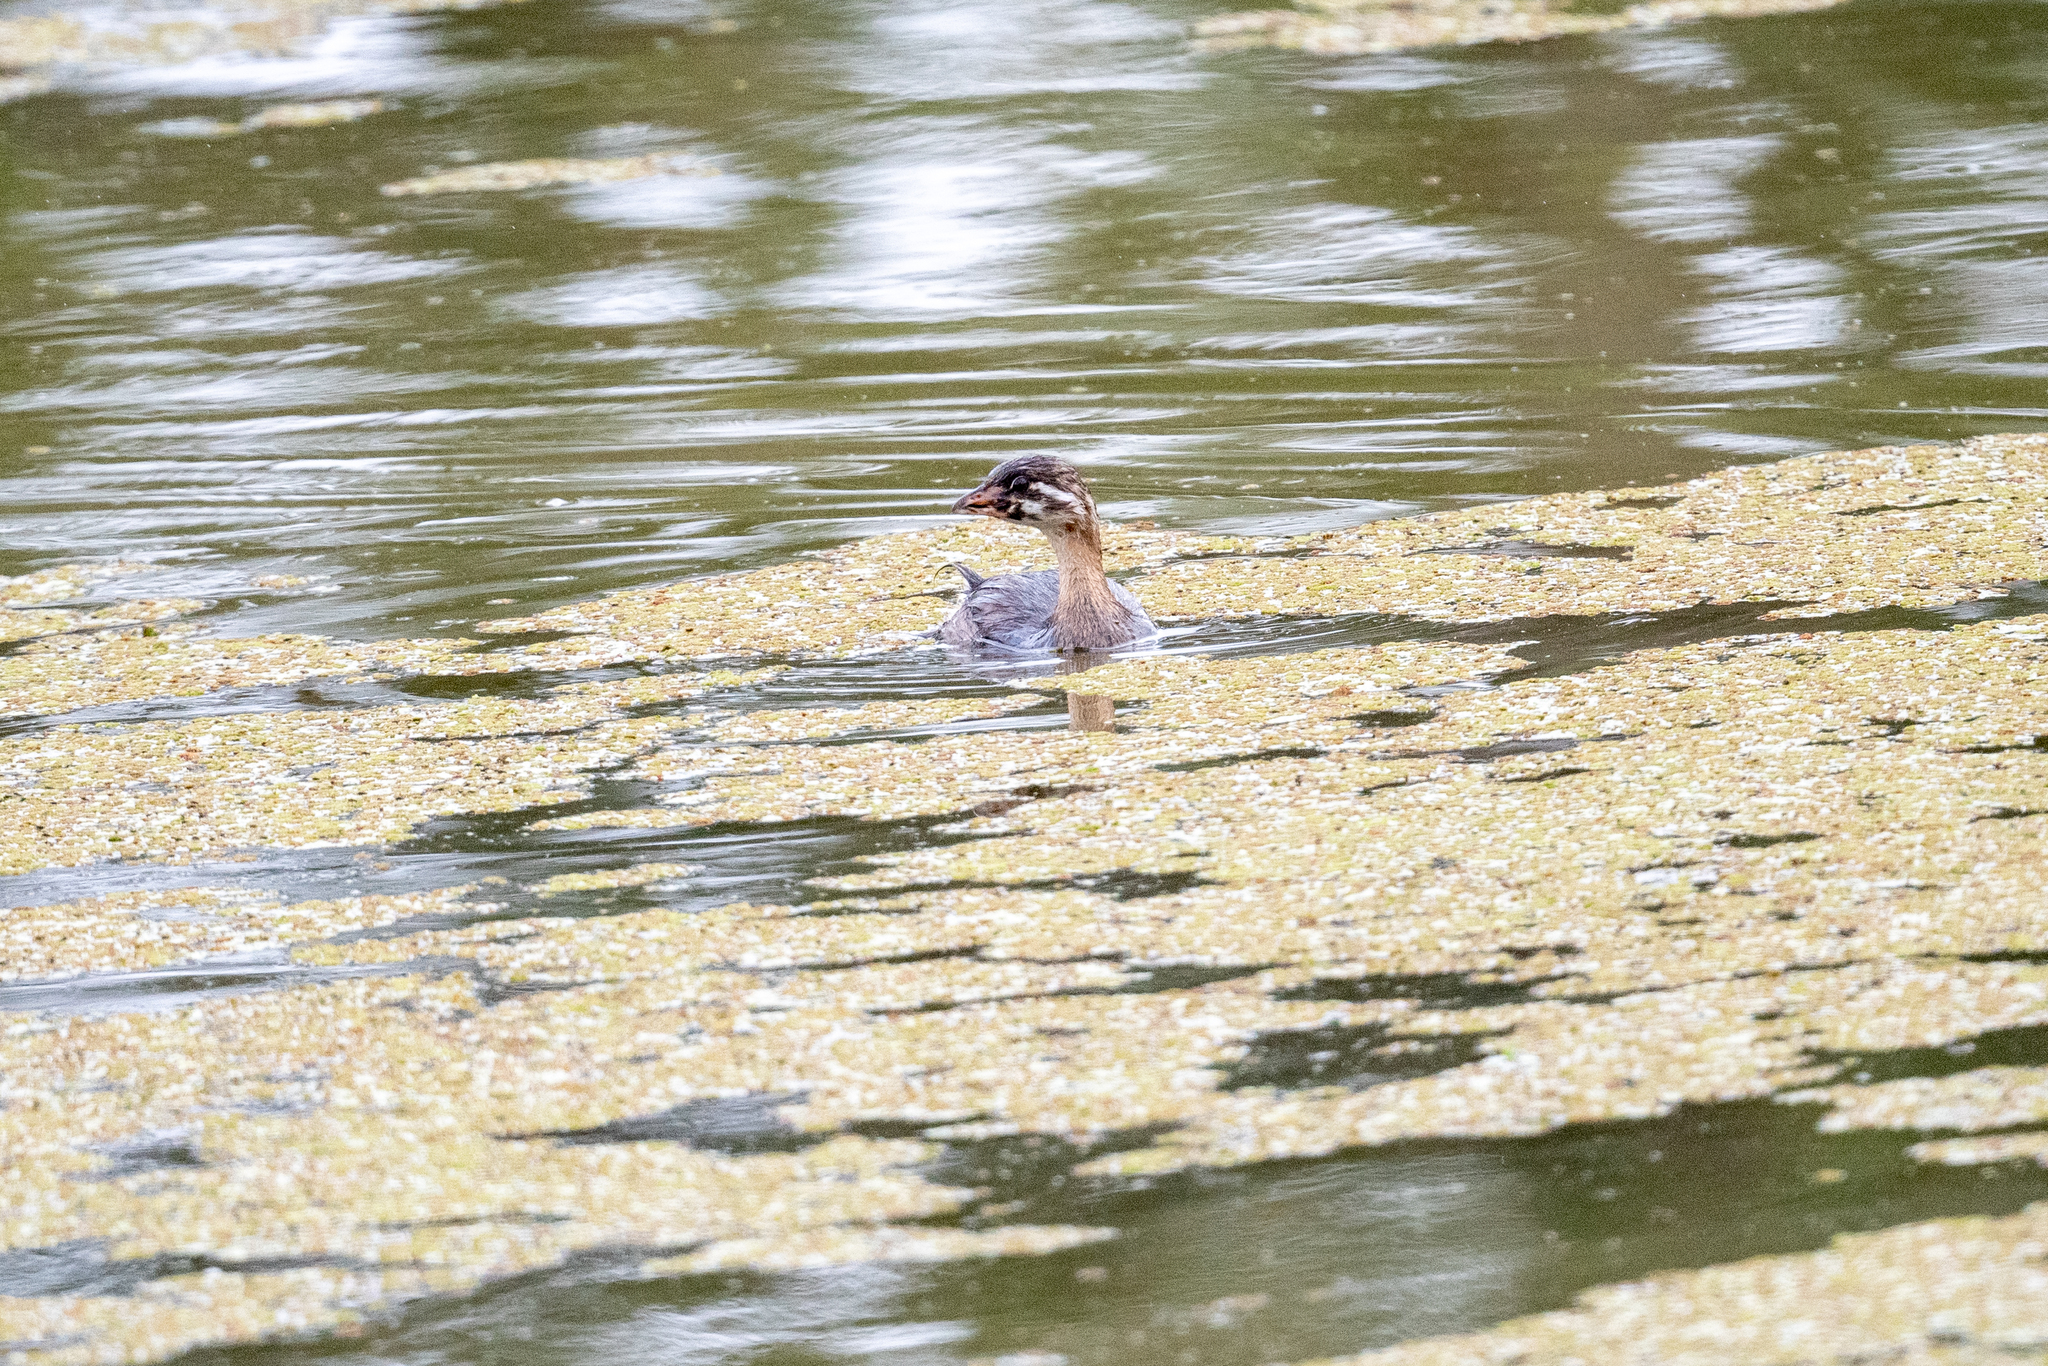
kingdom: Animalia
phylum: Chordata
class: Aves
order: Podicipediformes
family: Podicipedidae
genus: Podilymbus
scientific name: Podilymbus podiceps
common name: Pied-billed grebe
